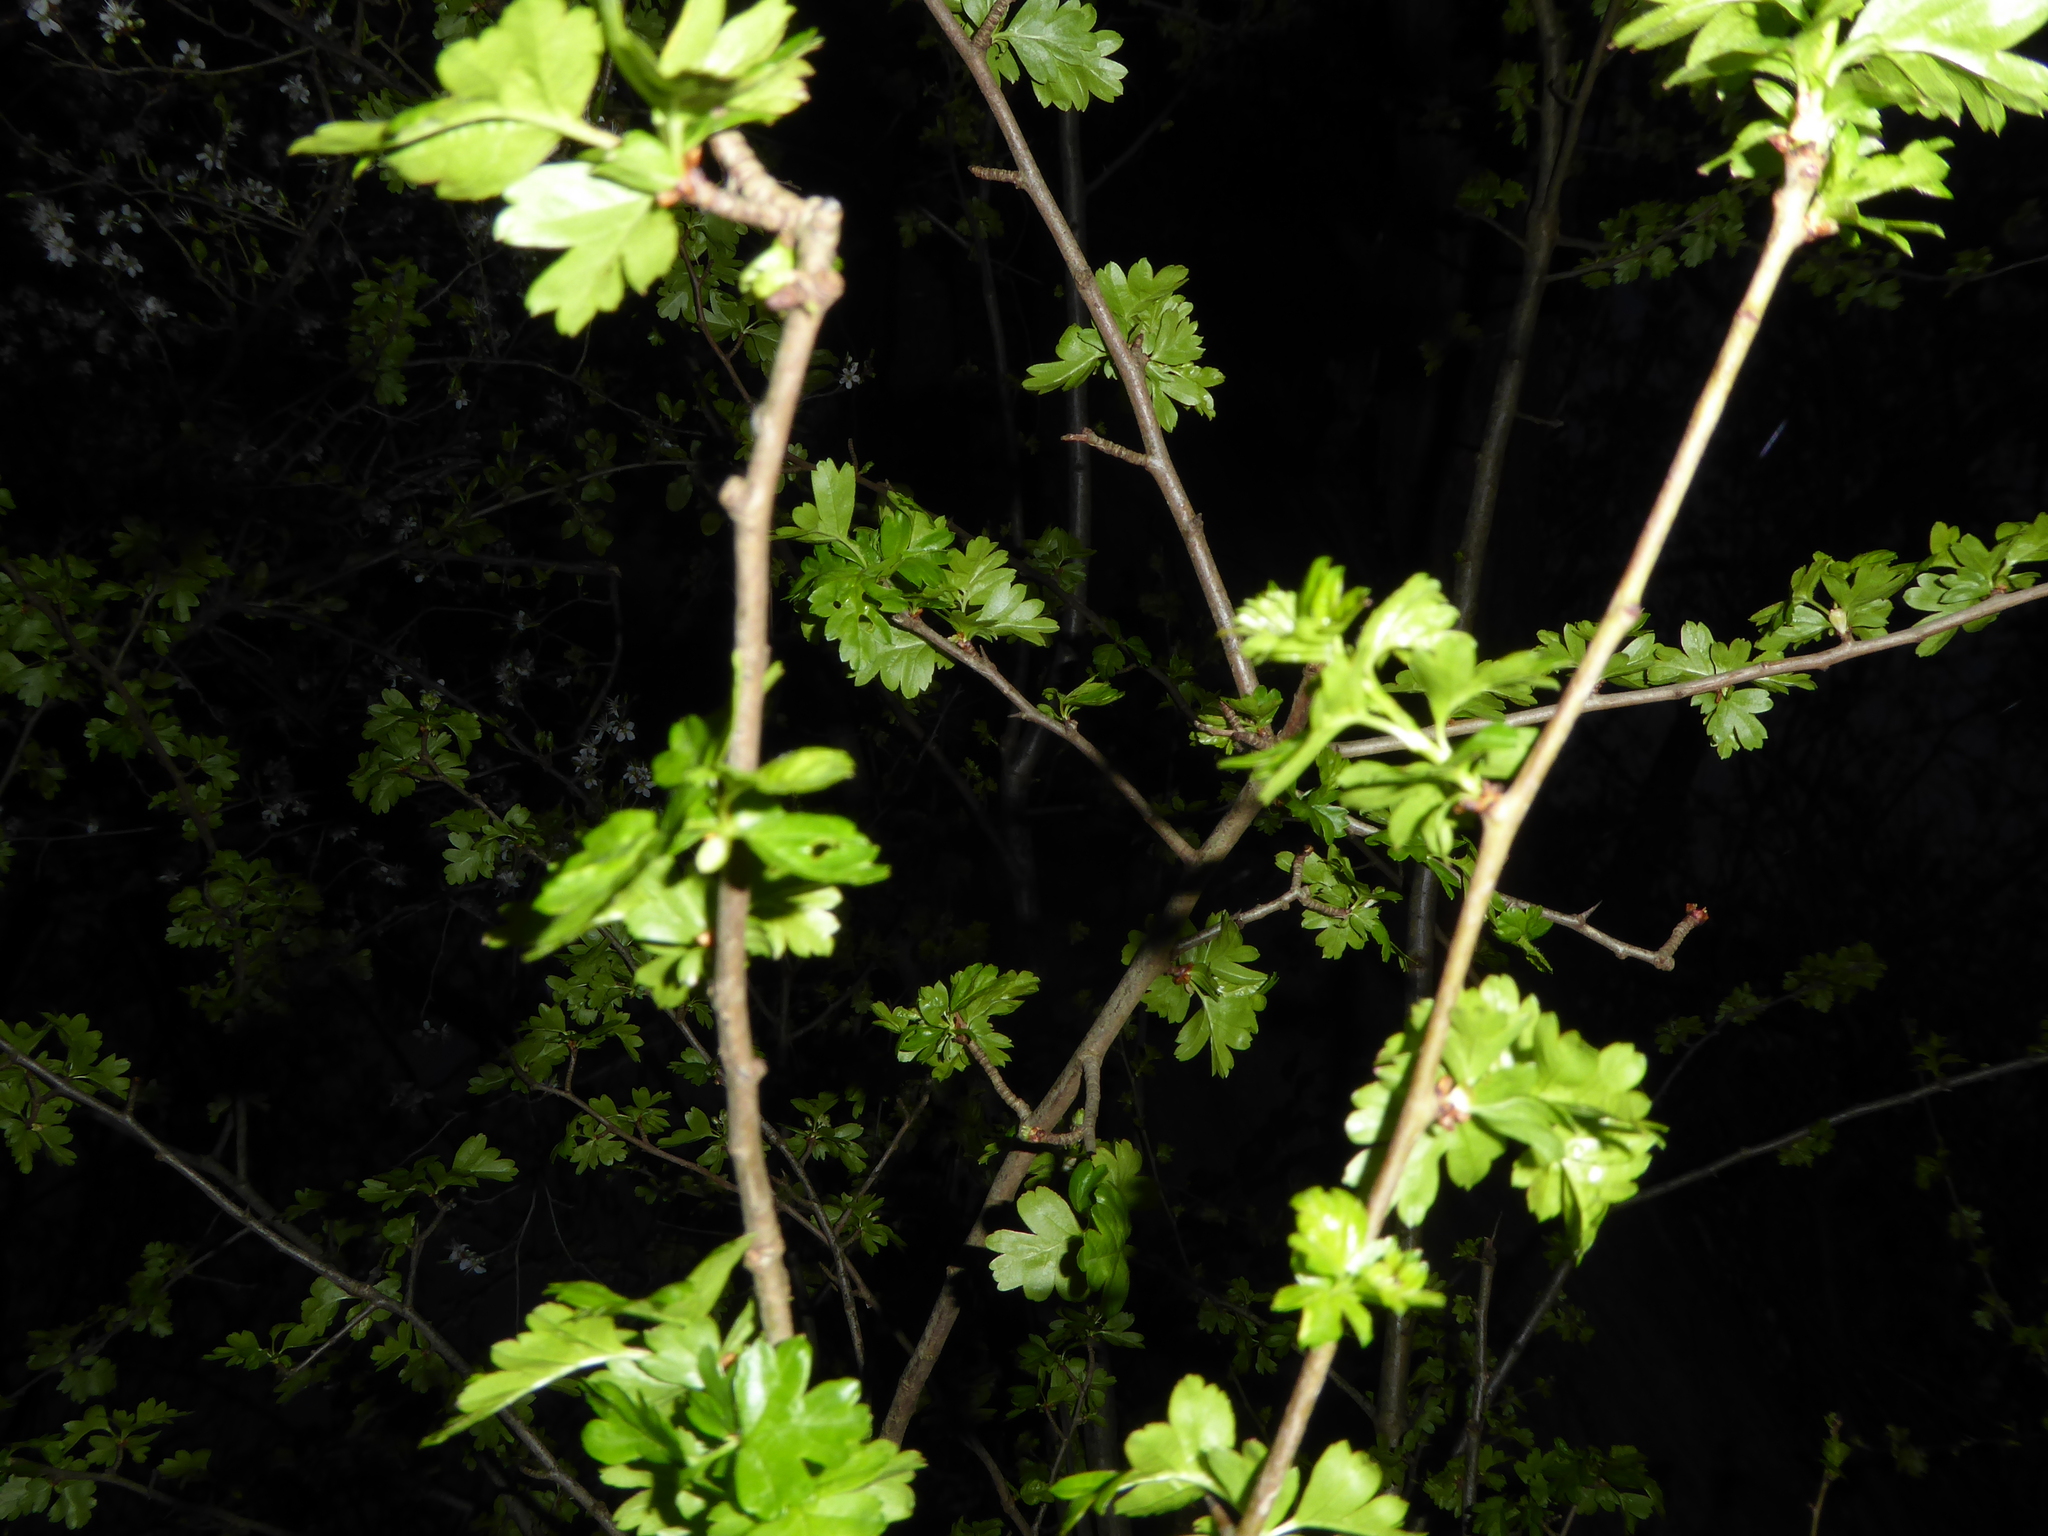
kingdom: Plantae
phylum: Tracheophyta
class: Magnoliopsida
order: Rosales
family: Rosaceae
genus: Crataegus
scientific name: Crataegus monogyna
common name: Hawthorn
